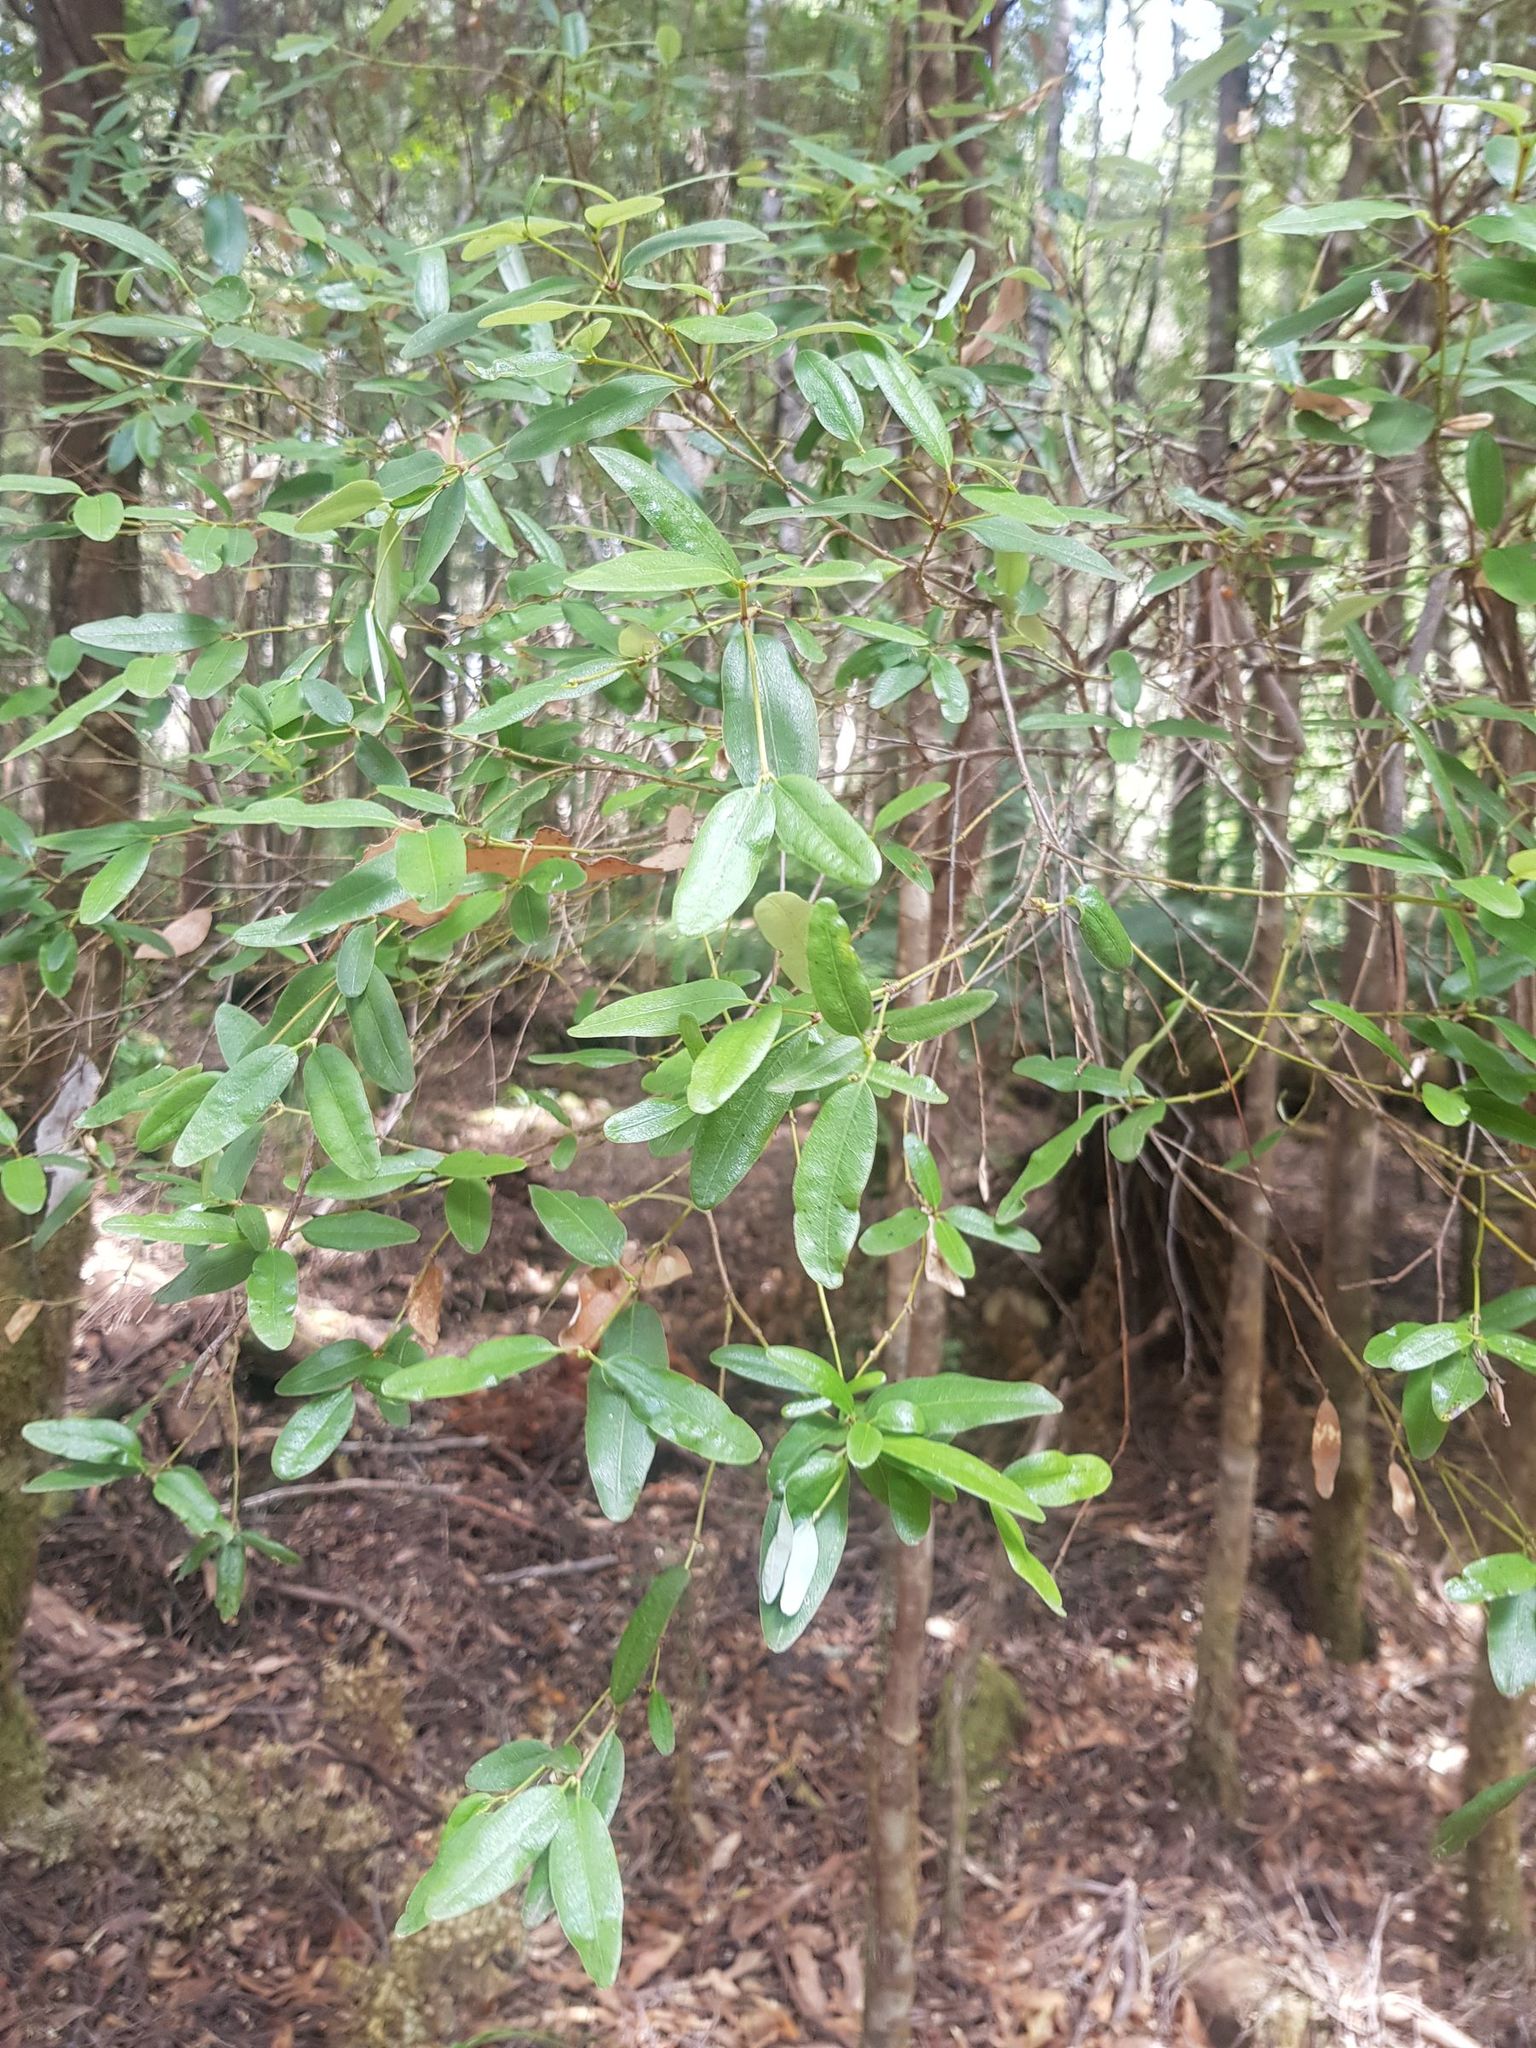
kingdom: Plantae
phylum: Tracheophyta
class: Magnoliopsida
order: Oxalidales
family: Cunoniaceae
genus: Eucryphia
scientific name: Eucryphia lucida
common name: Leatherwood
